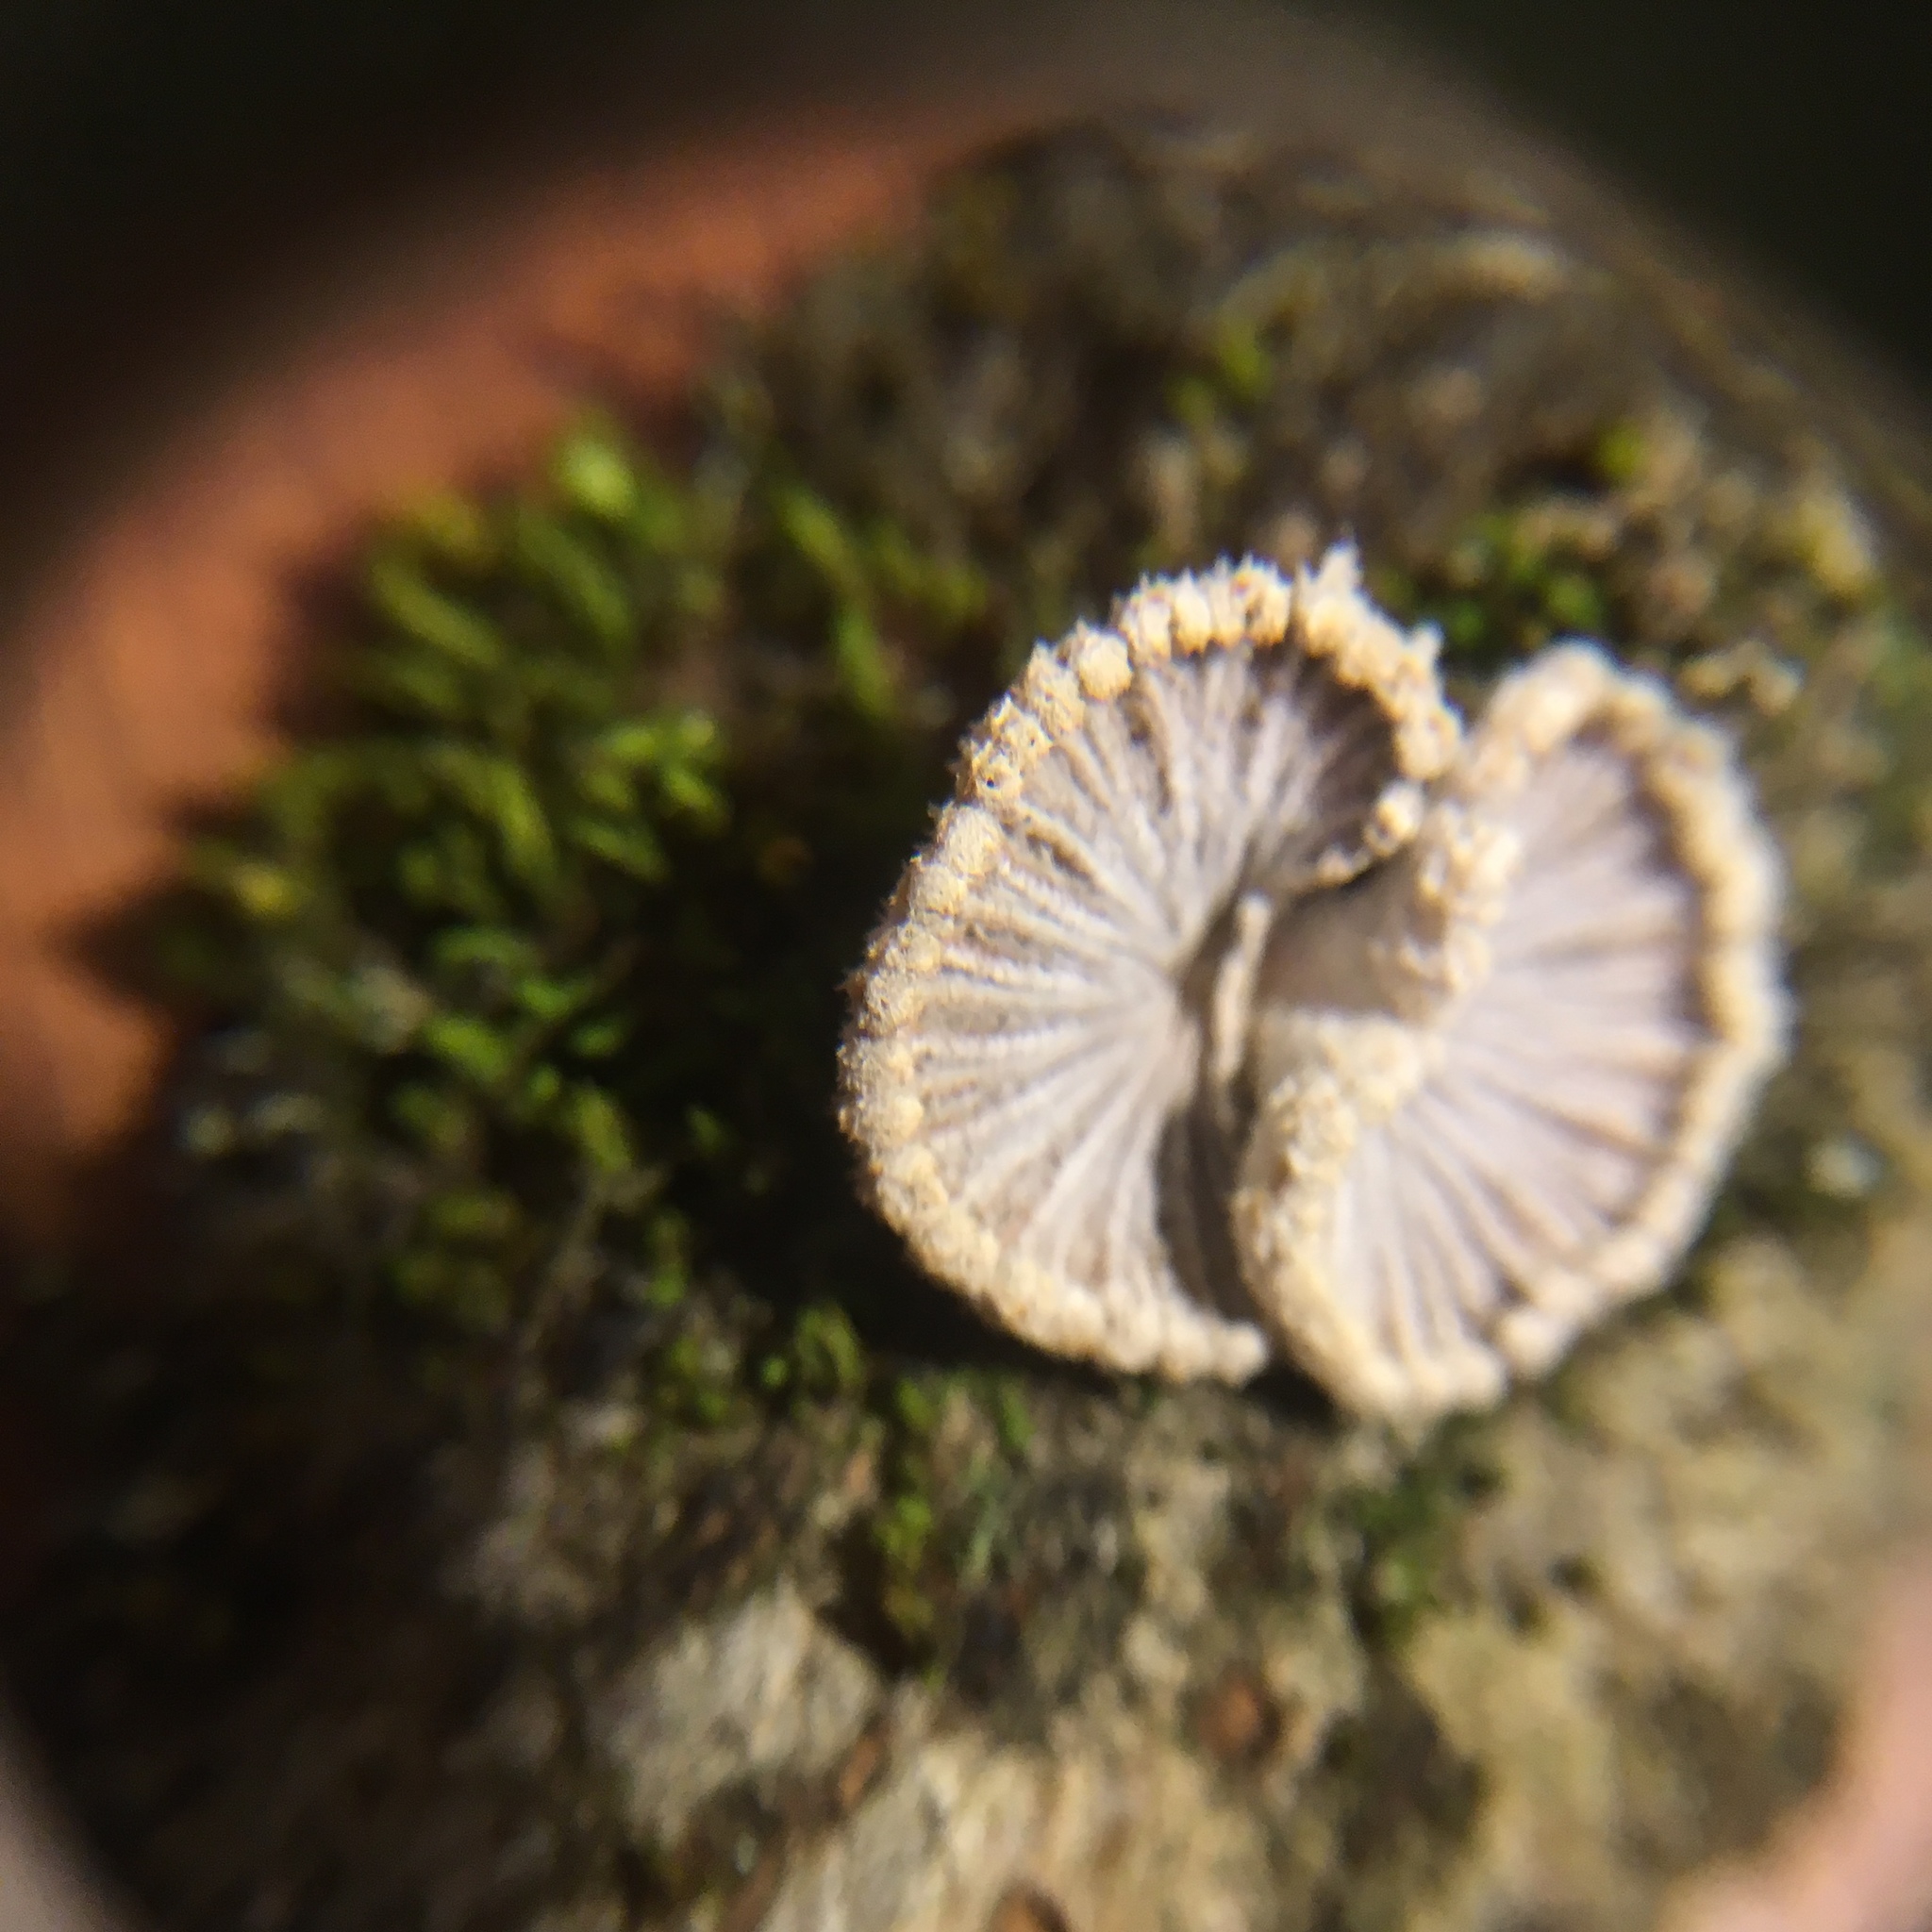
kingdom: Fungi
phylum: Basidiomycota
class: Agaricomycetes
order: Agaricales
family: Schizophyllaceae
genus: Schizophyllum
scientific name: Schizophyllum commune
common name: Common porecrust
